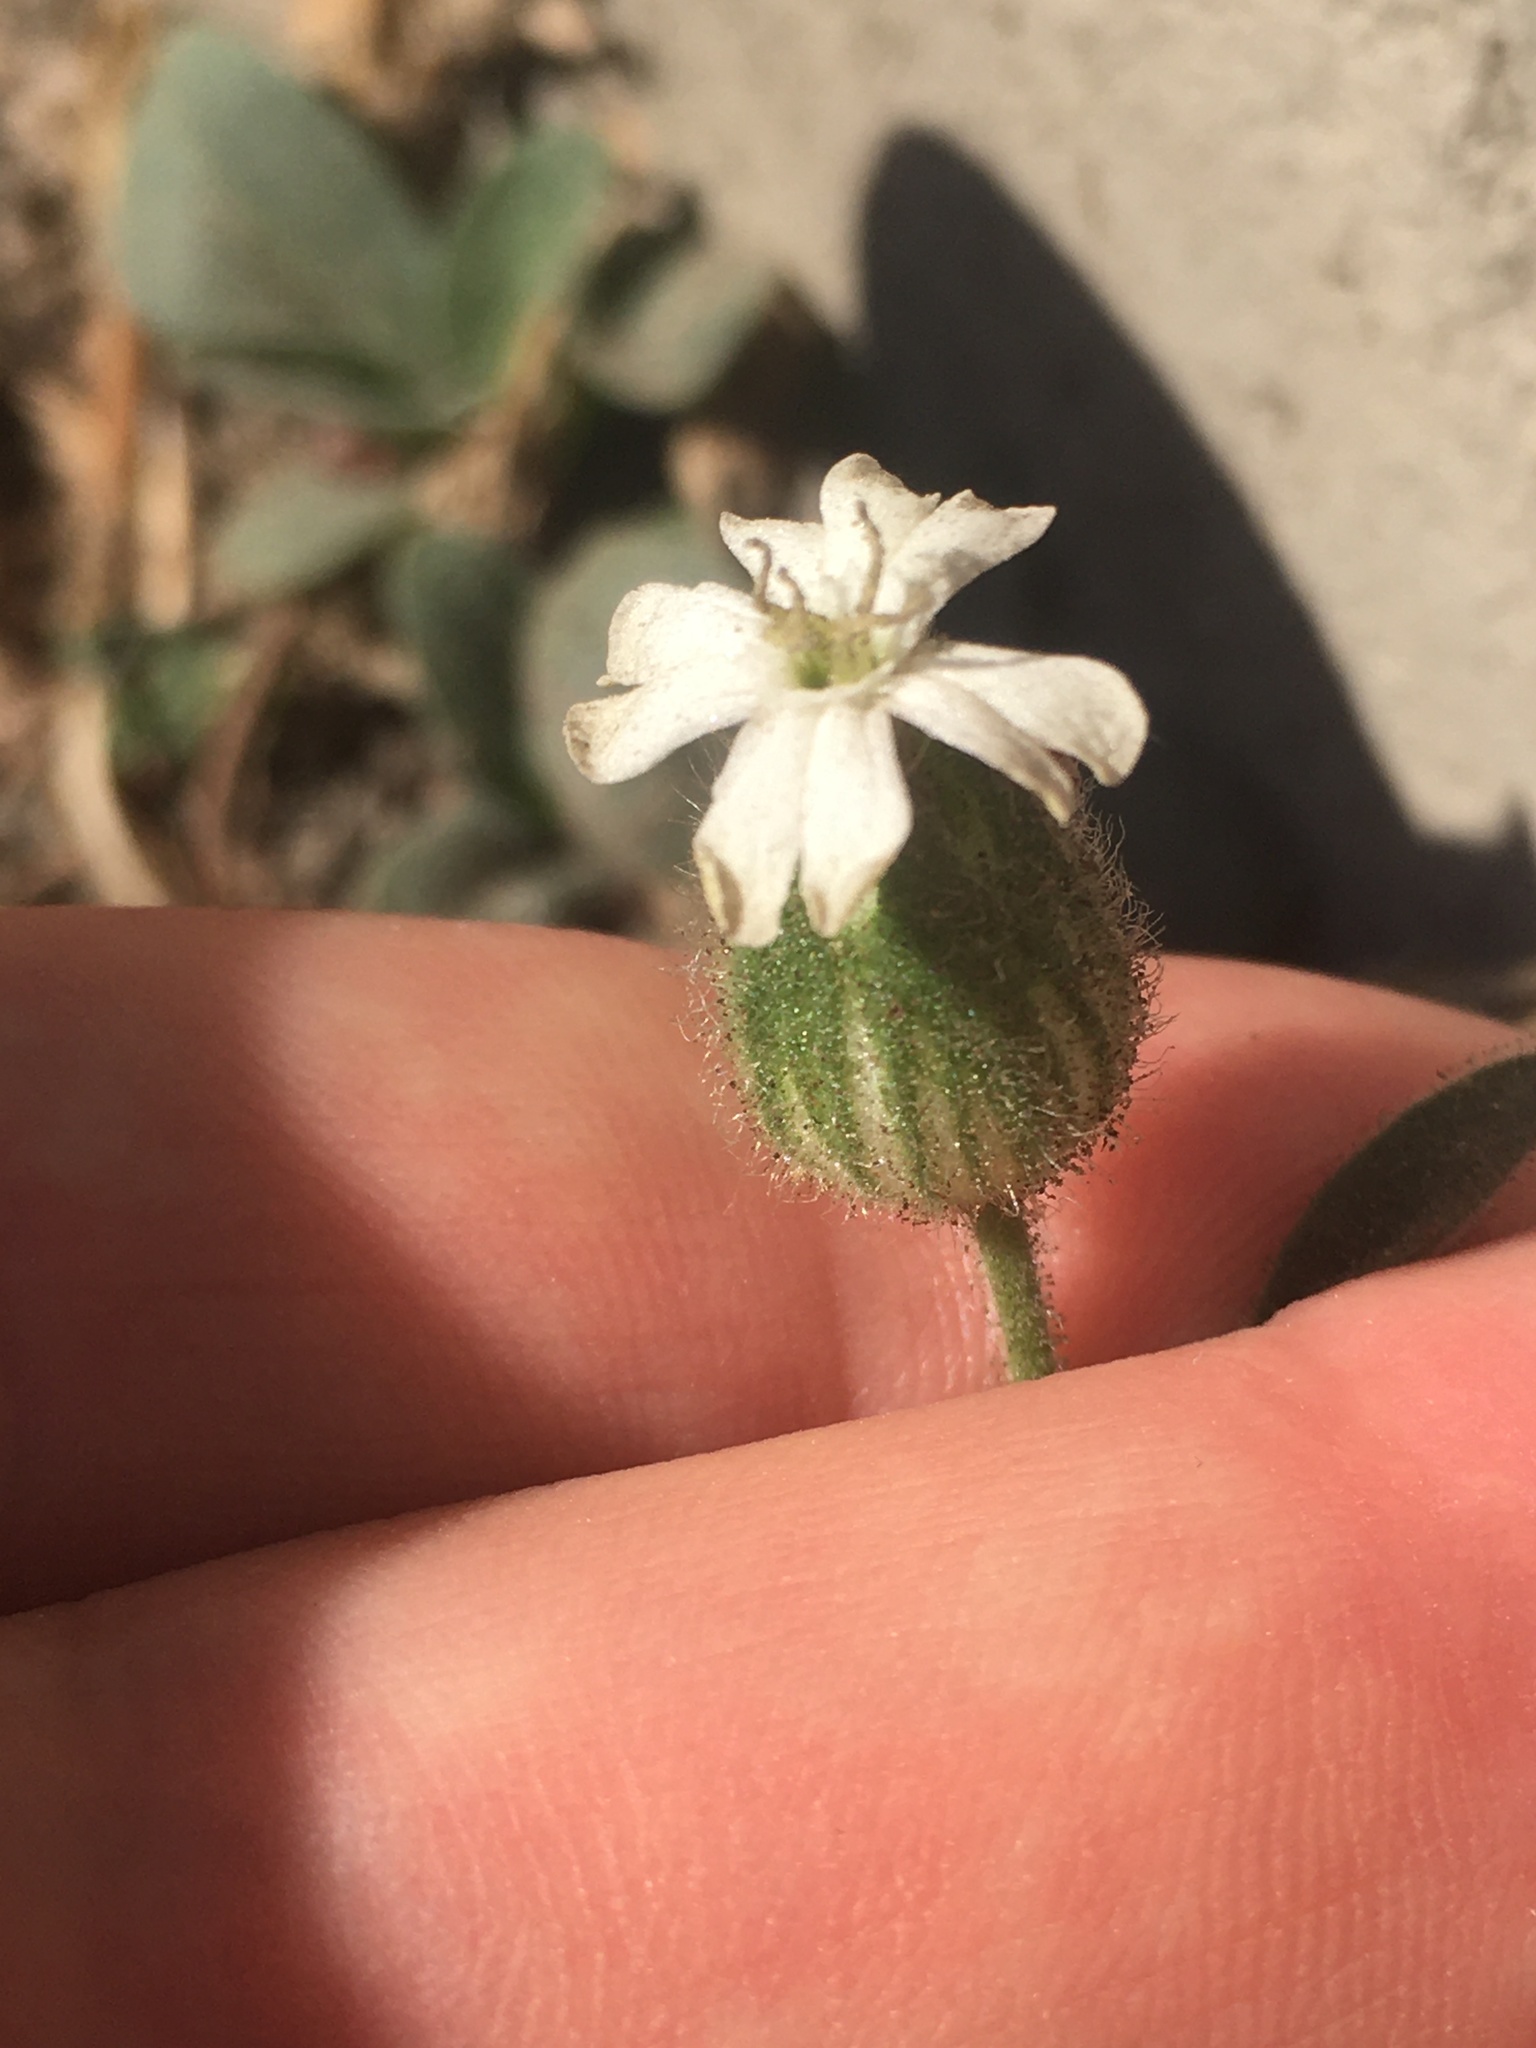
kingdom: Plantae
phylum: Tracheophyta
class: Magnoliopsida
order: Caryophyllales
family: Caryophyllaceae
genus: Silene
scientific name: Silene latifolia
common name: White campion
